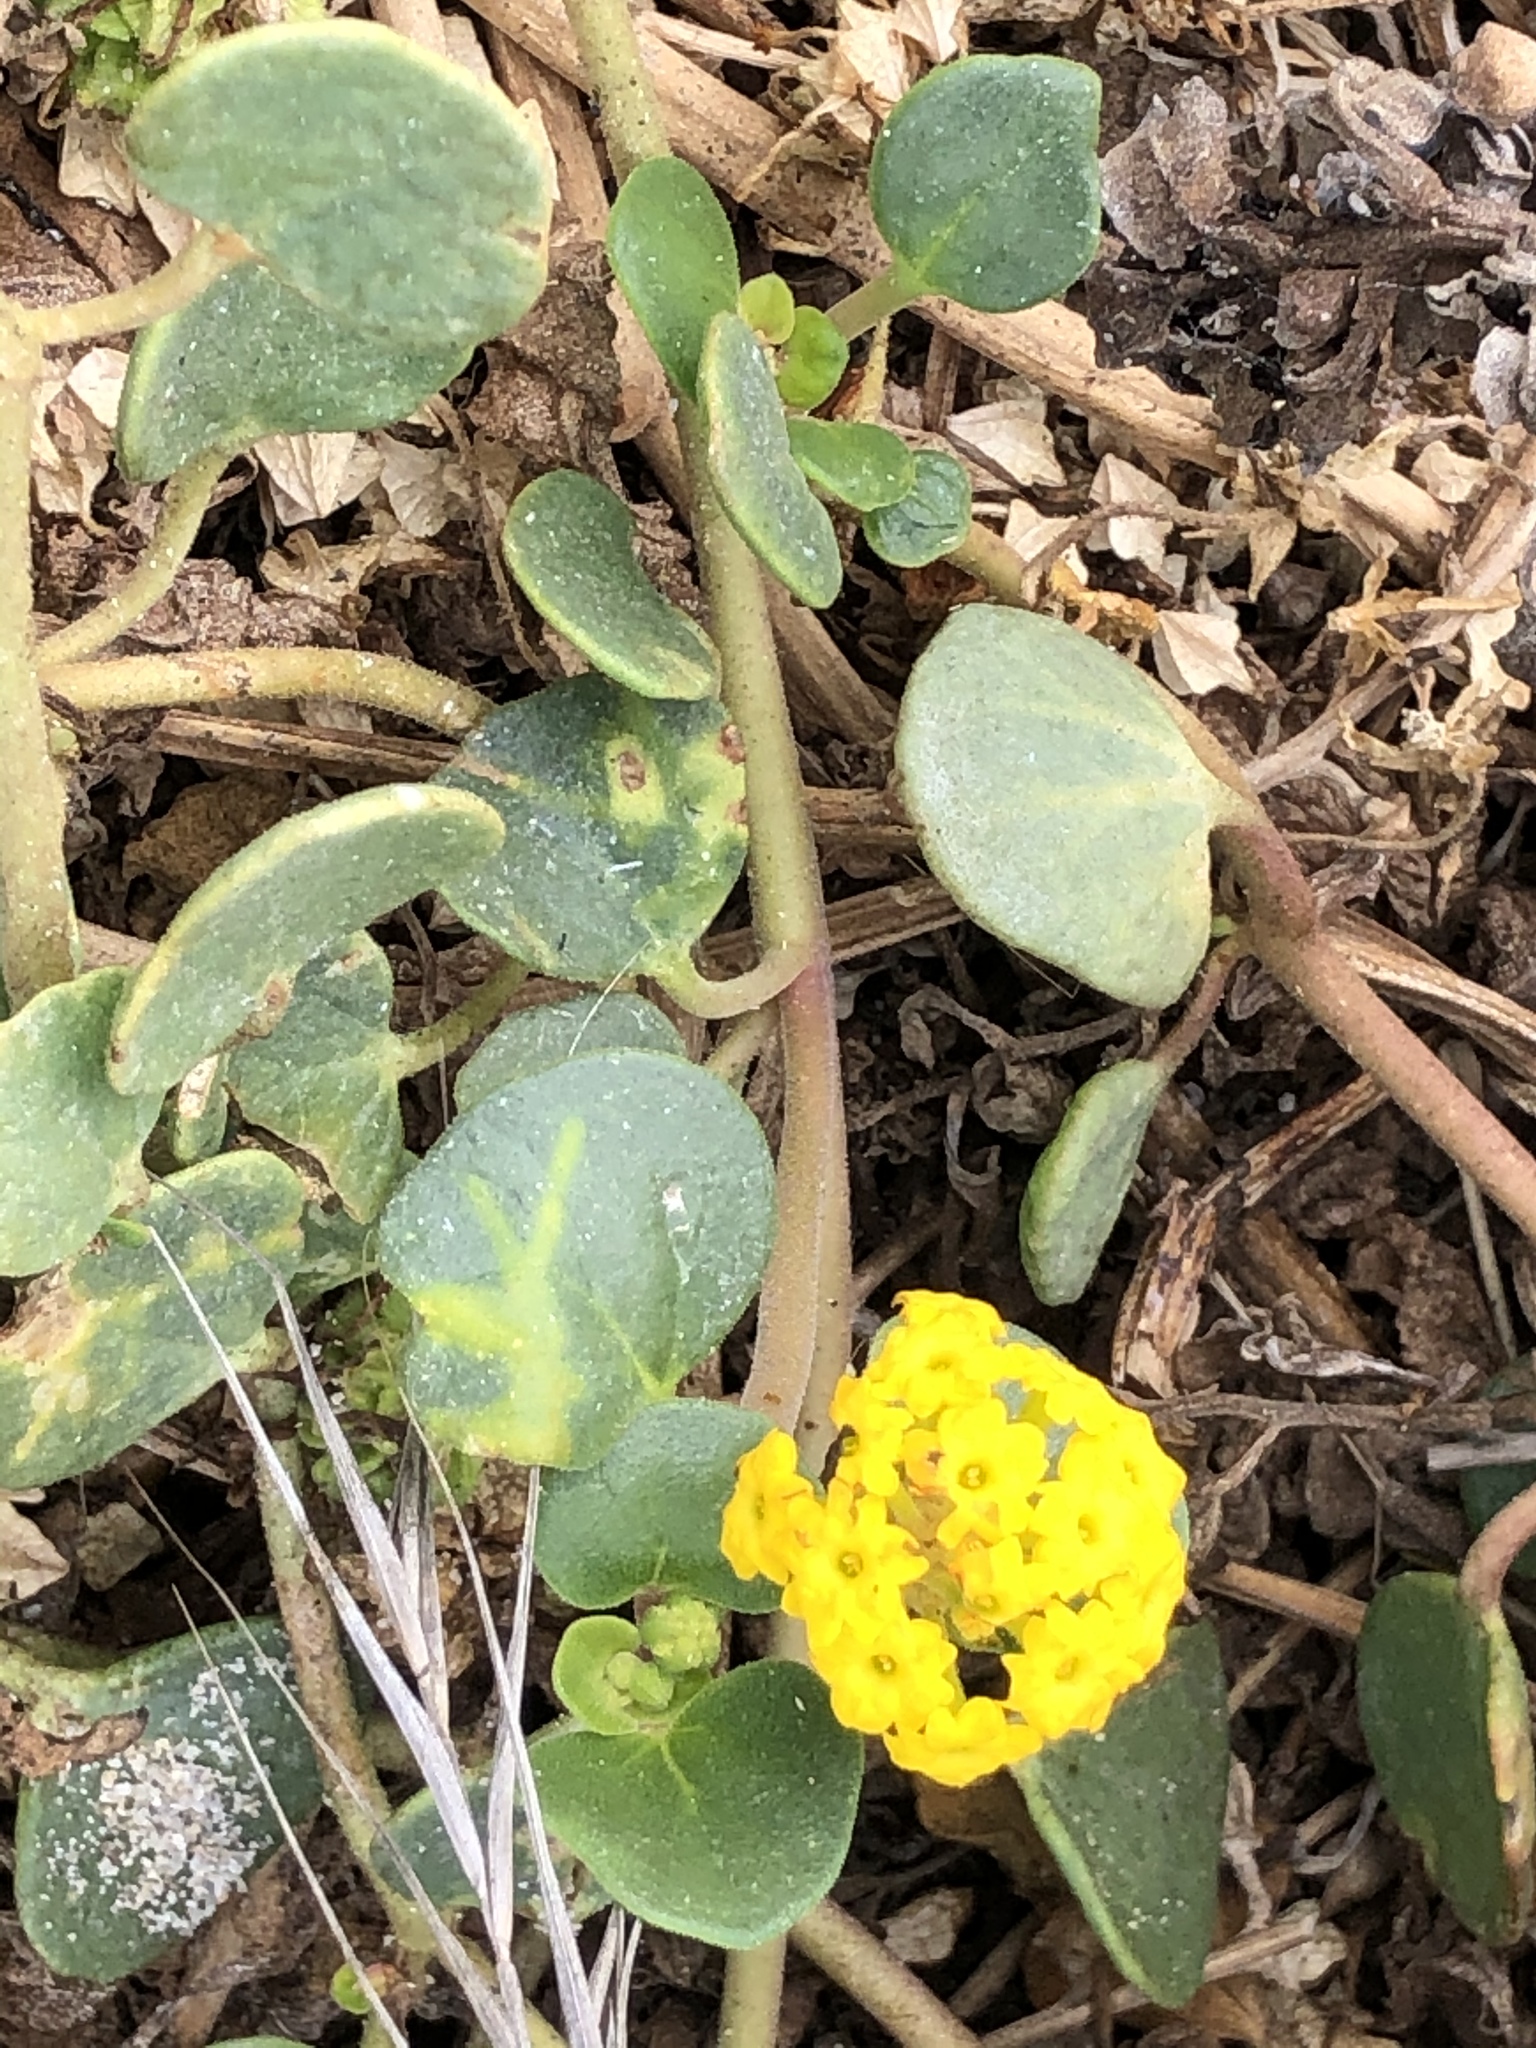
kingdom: Plantae
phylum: Tracheophyta
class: Magnoliopsida
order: Caryophyllales
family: Nyctaginaceae
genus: Abronia
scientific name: Abronia latifolia
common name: Yellow sand-verbena
